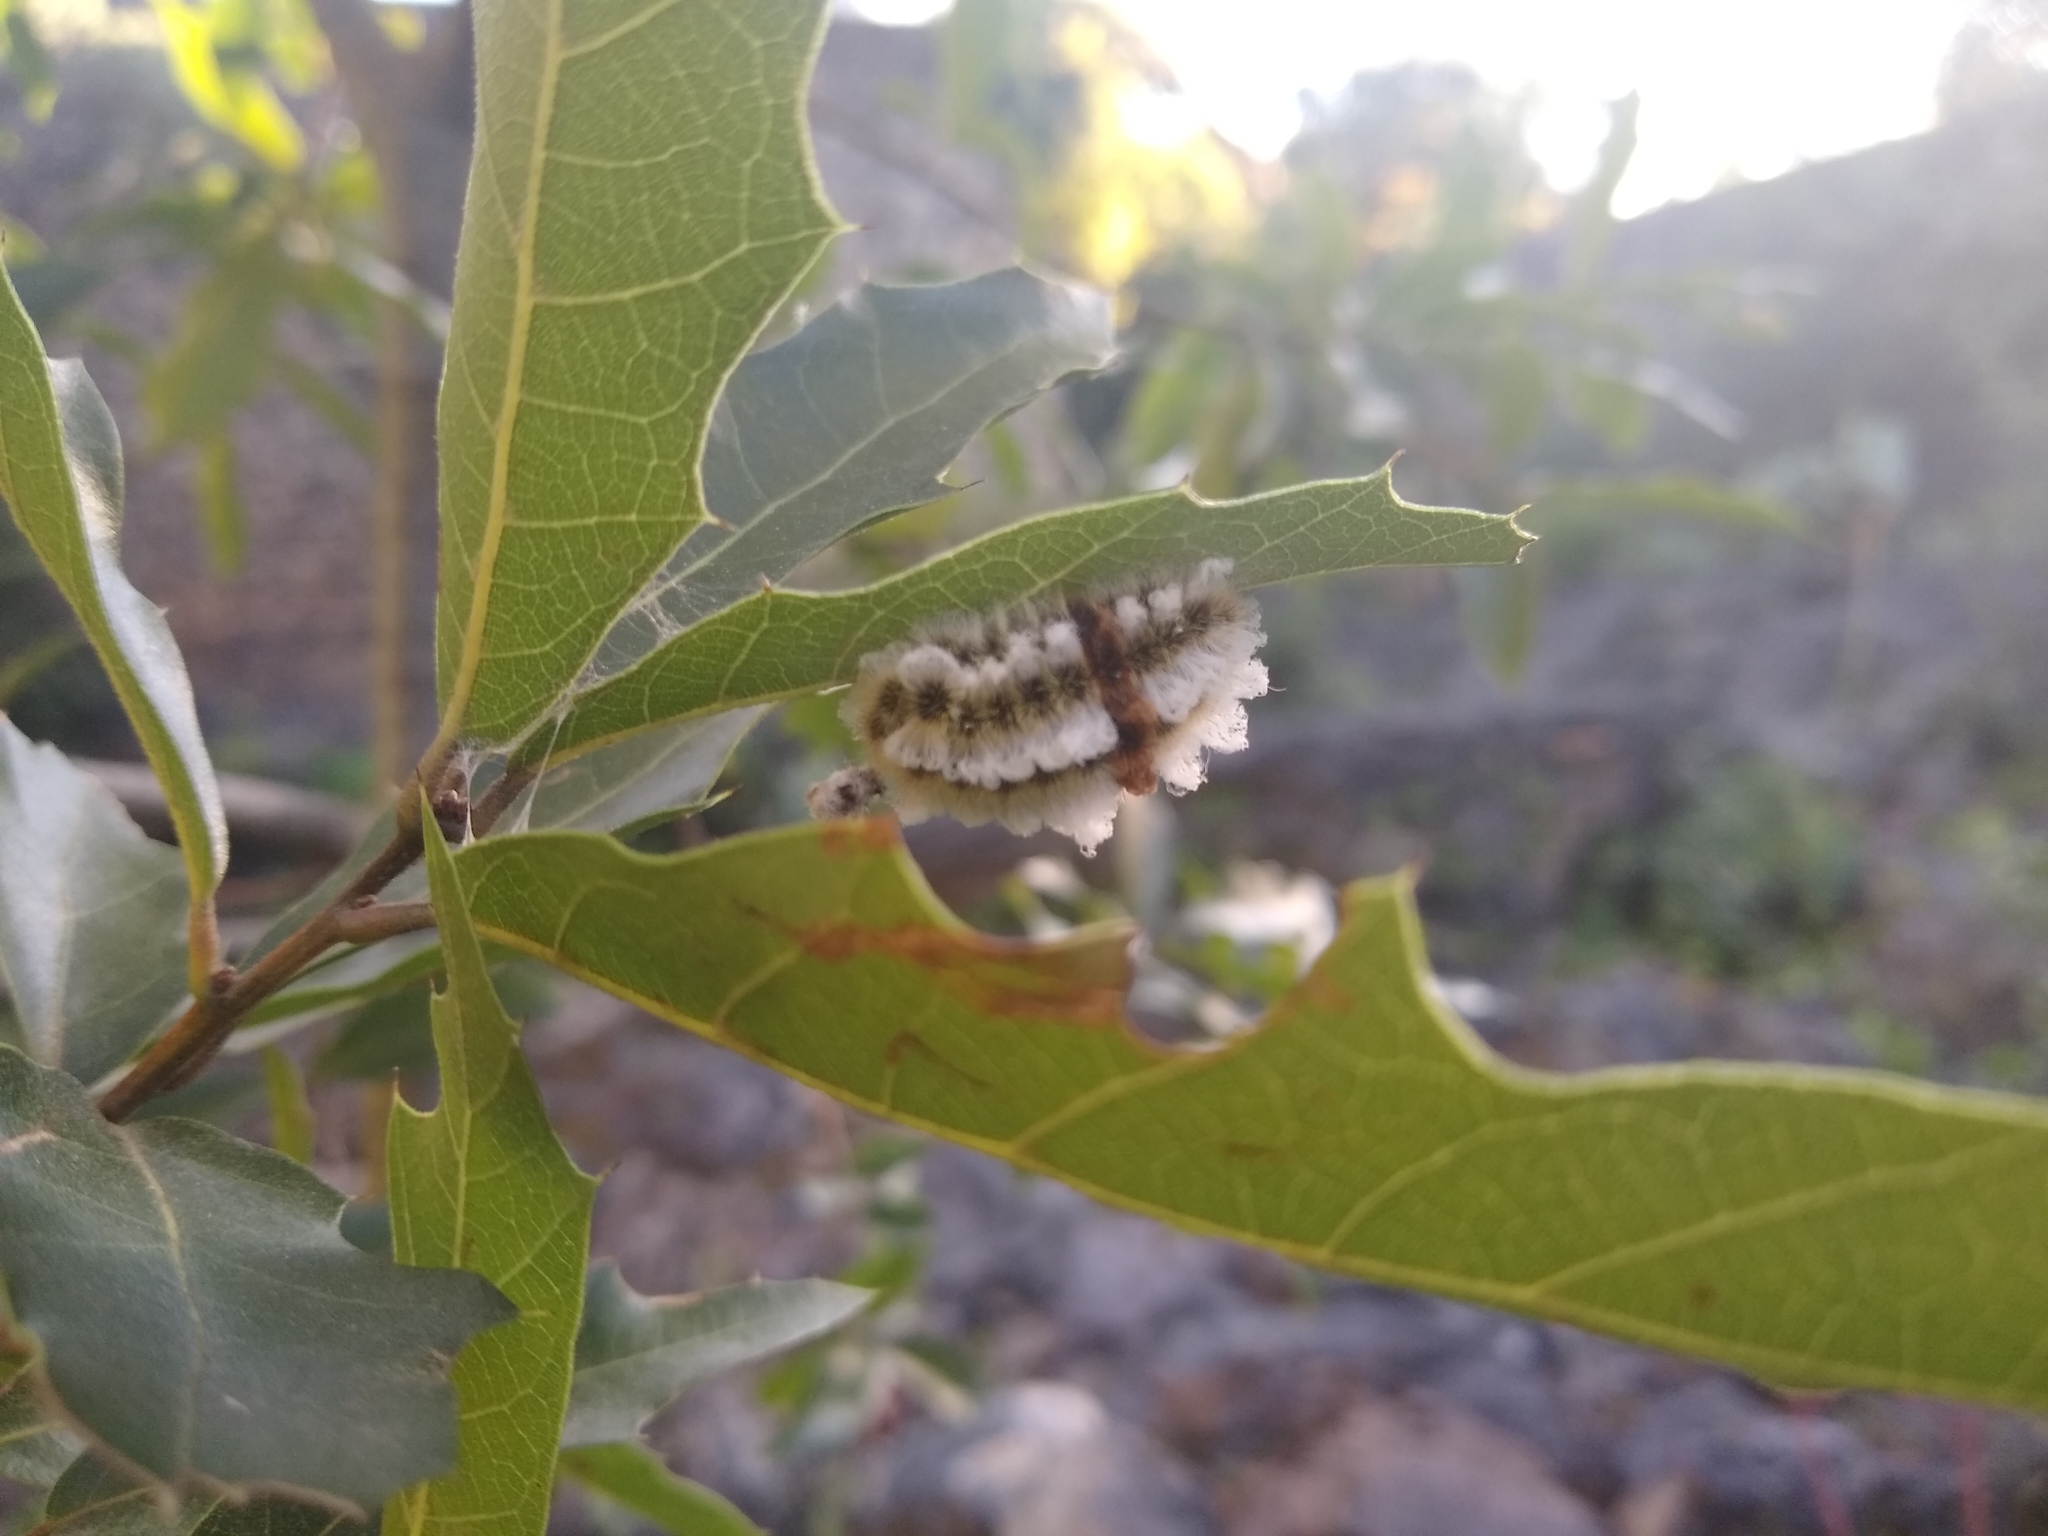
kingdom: Animalia
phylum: Arthropoda
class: Insecta
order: Lepidoptera
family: Megalopygidae
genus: Megalopyge
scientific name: Megalopyge defoliata
